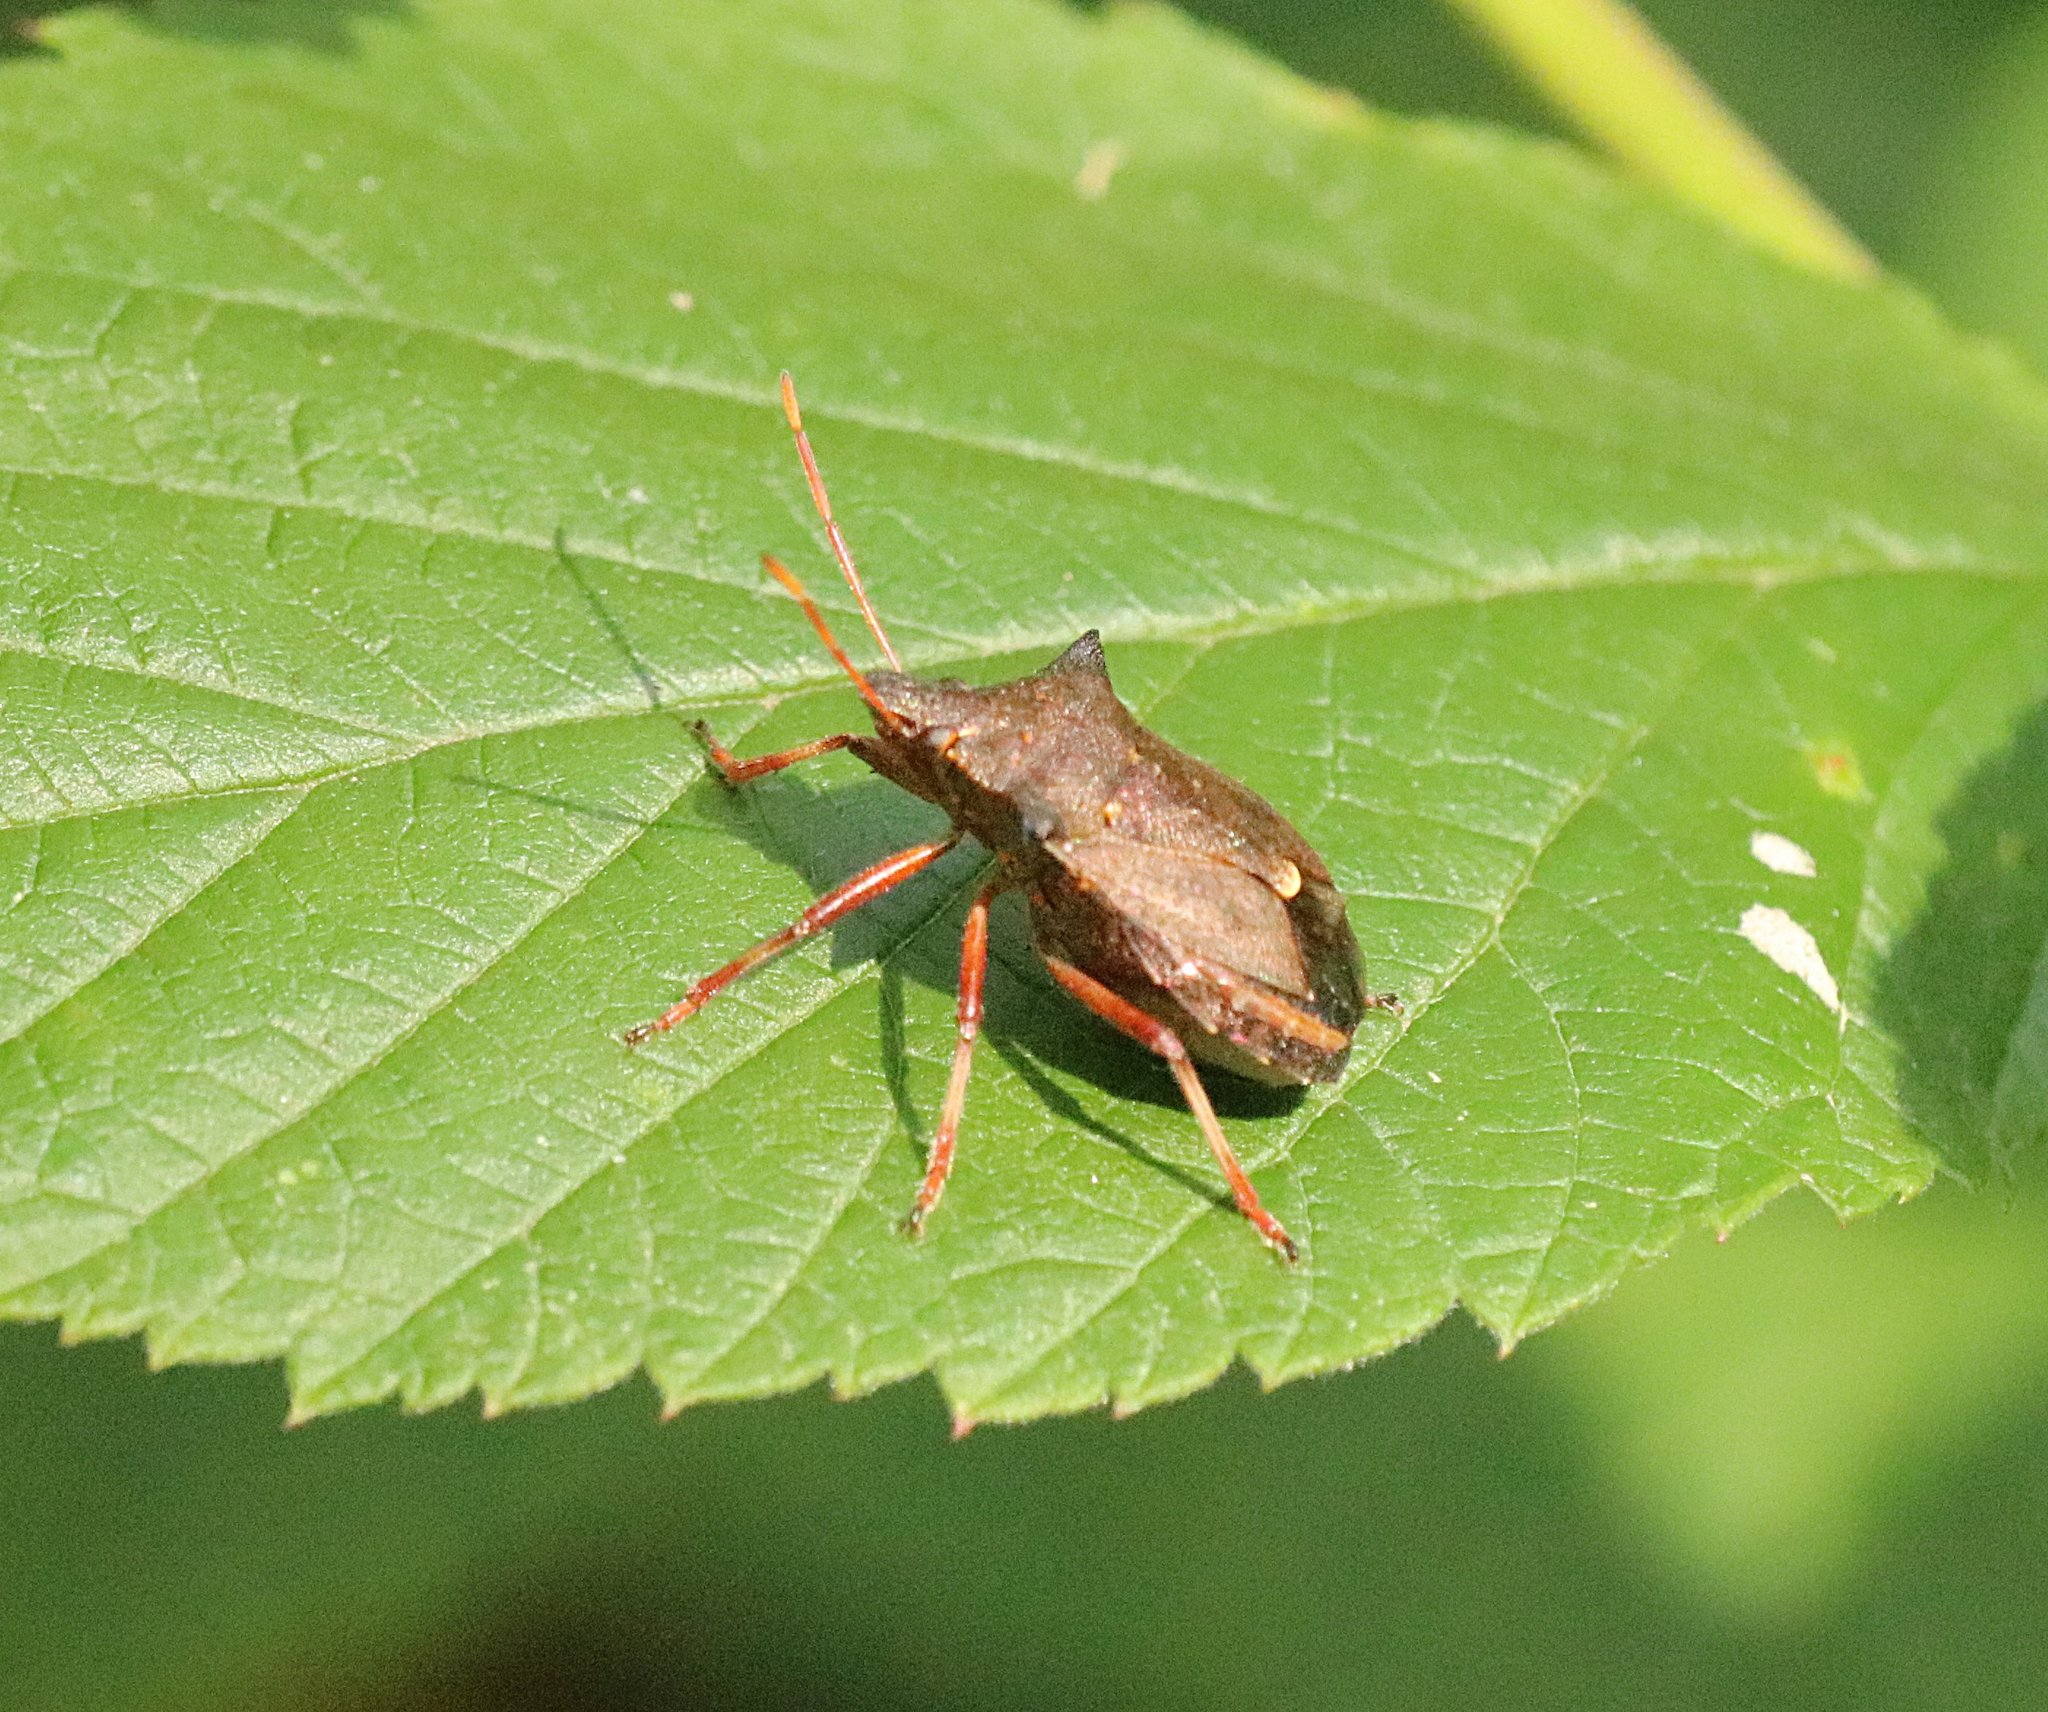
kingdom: Animalia
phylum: Arthropoda
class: Insecta
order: Hemiptera
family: Pentatomidae
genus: Picromerus
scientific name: Picromerus bidens
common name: Spiked shieldbug
